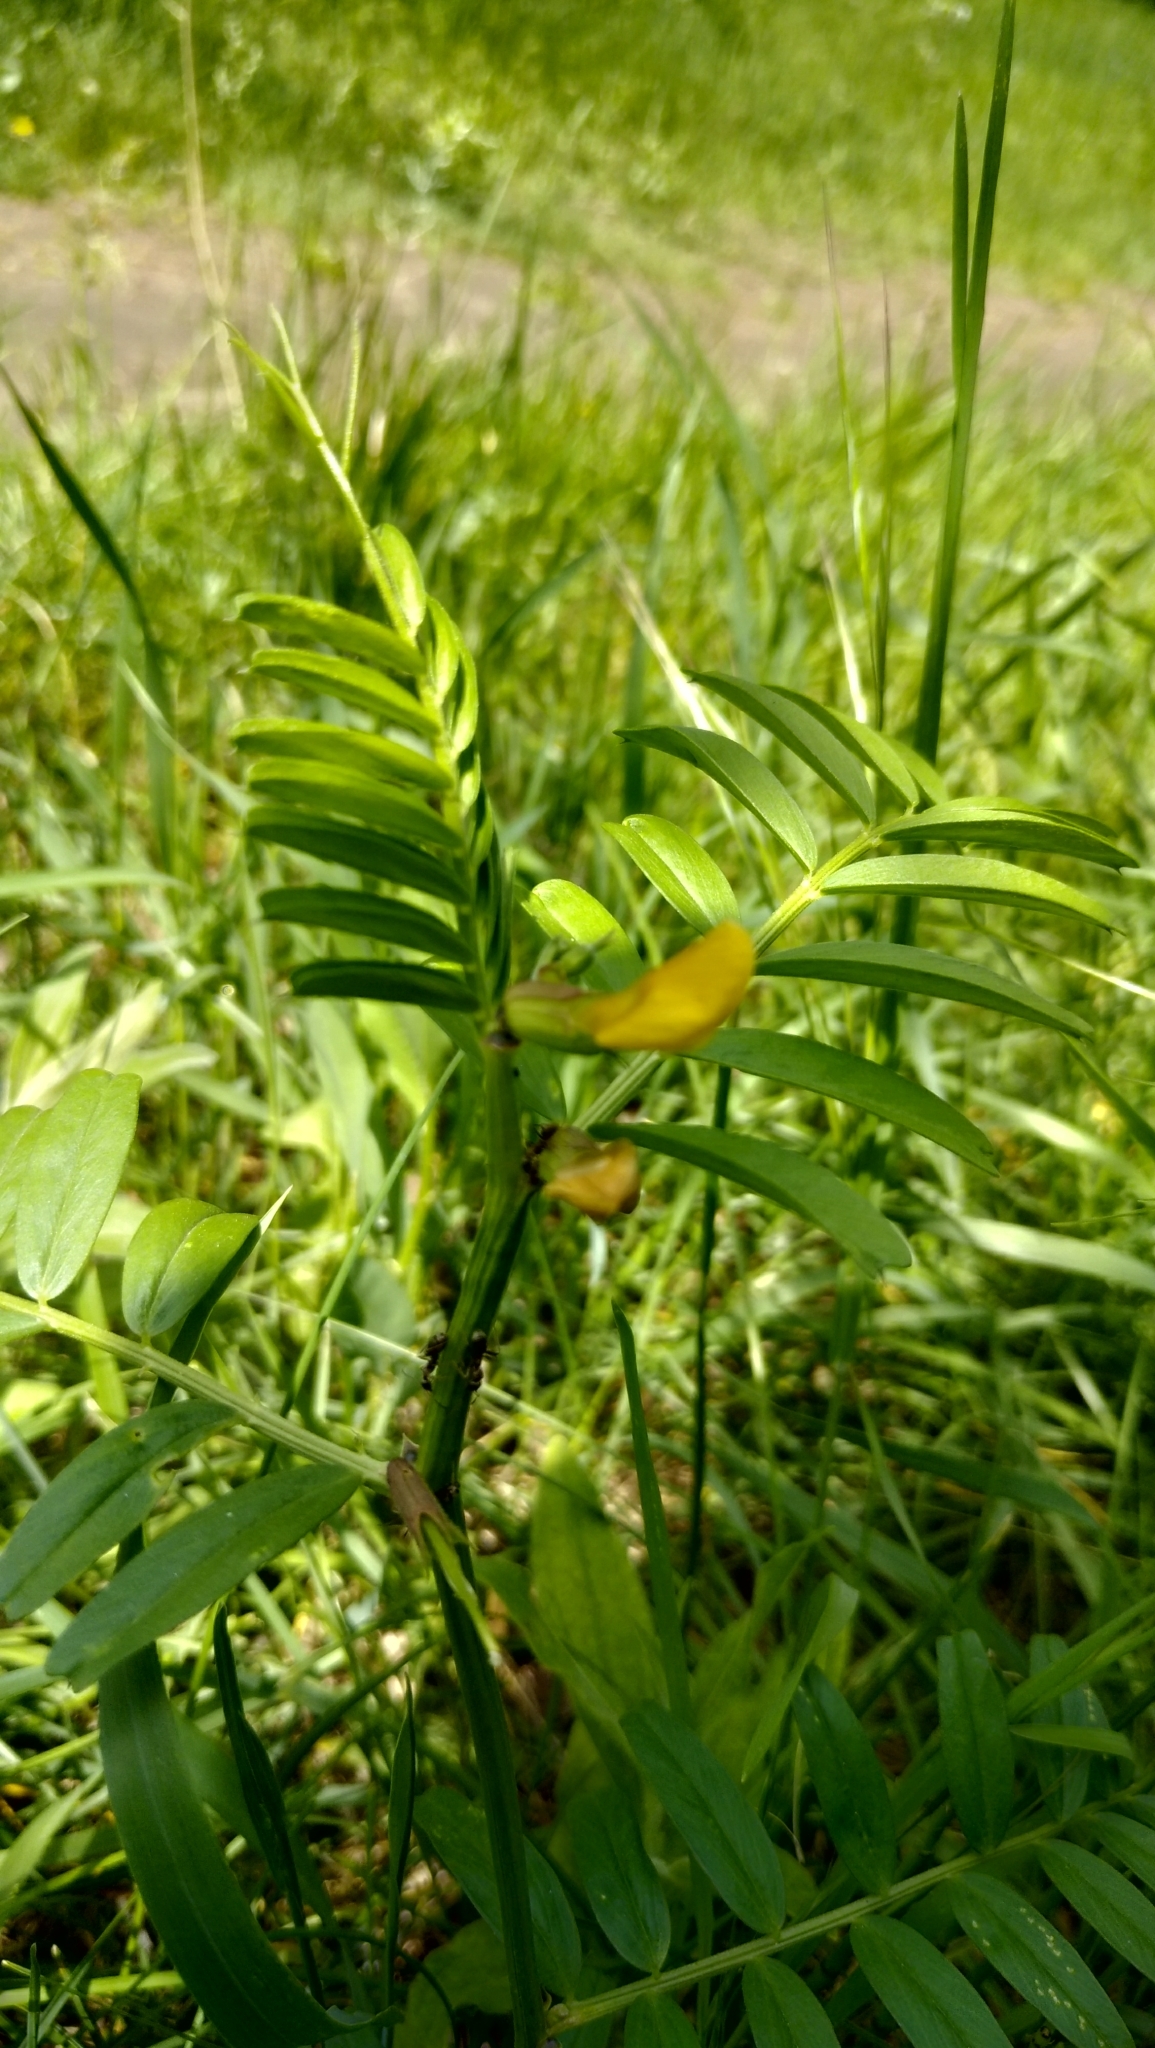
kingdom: Plantae
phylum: Tracheophyta
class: Magnoliopsida
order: Fabales
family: Fabaceae
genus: Vicia
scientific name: Vicia grandiflora
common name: Large yellow vetch
